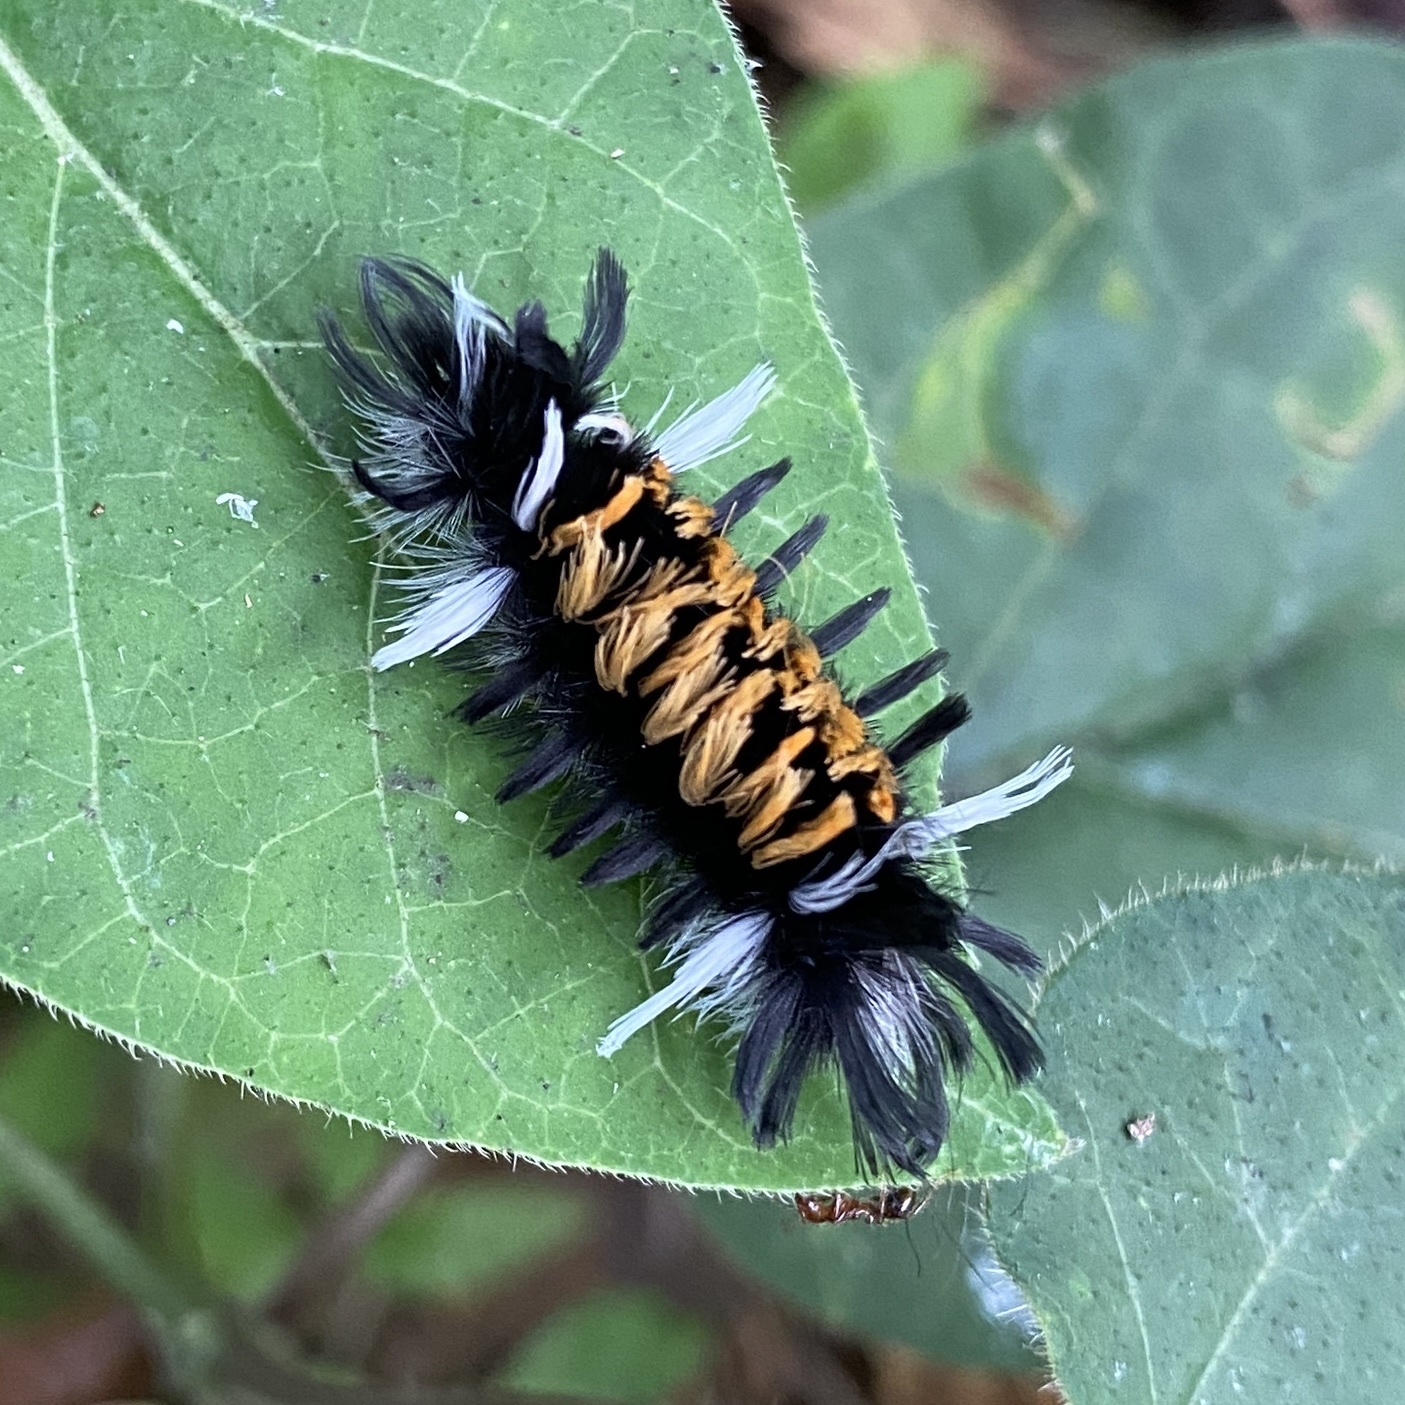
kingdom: Animalia
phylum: Arthropoda
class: Insecta
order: Lepidoptera
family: Erebidae
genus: Euchaetes
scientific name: Euchaetes egle
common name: Milkweed tussock moth
